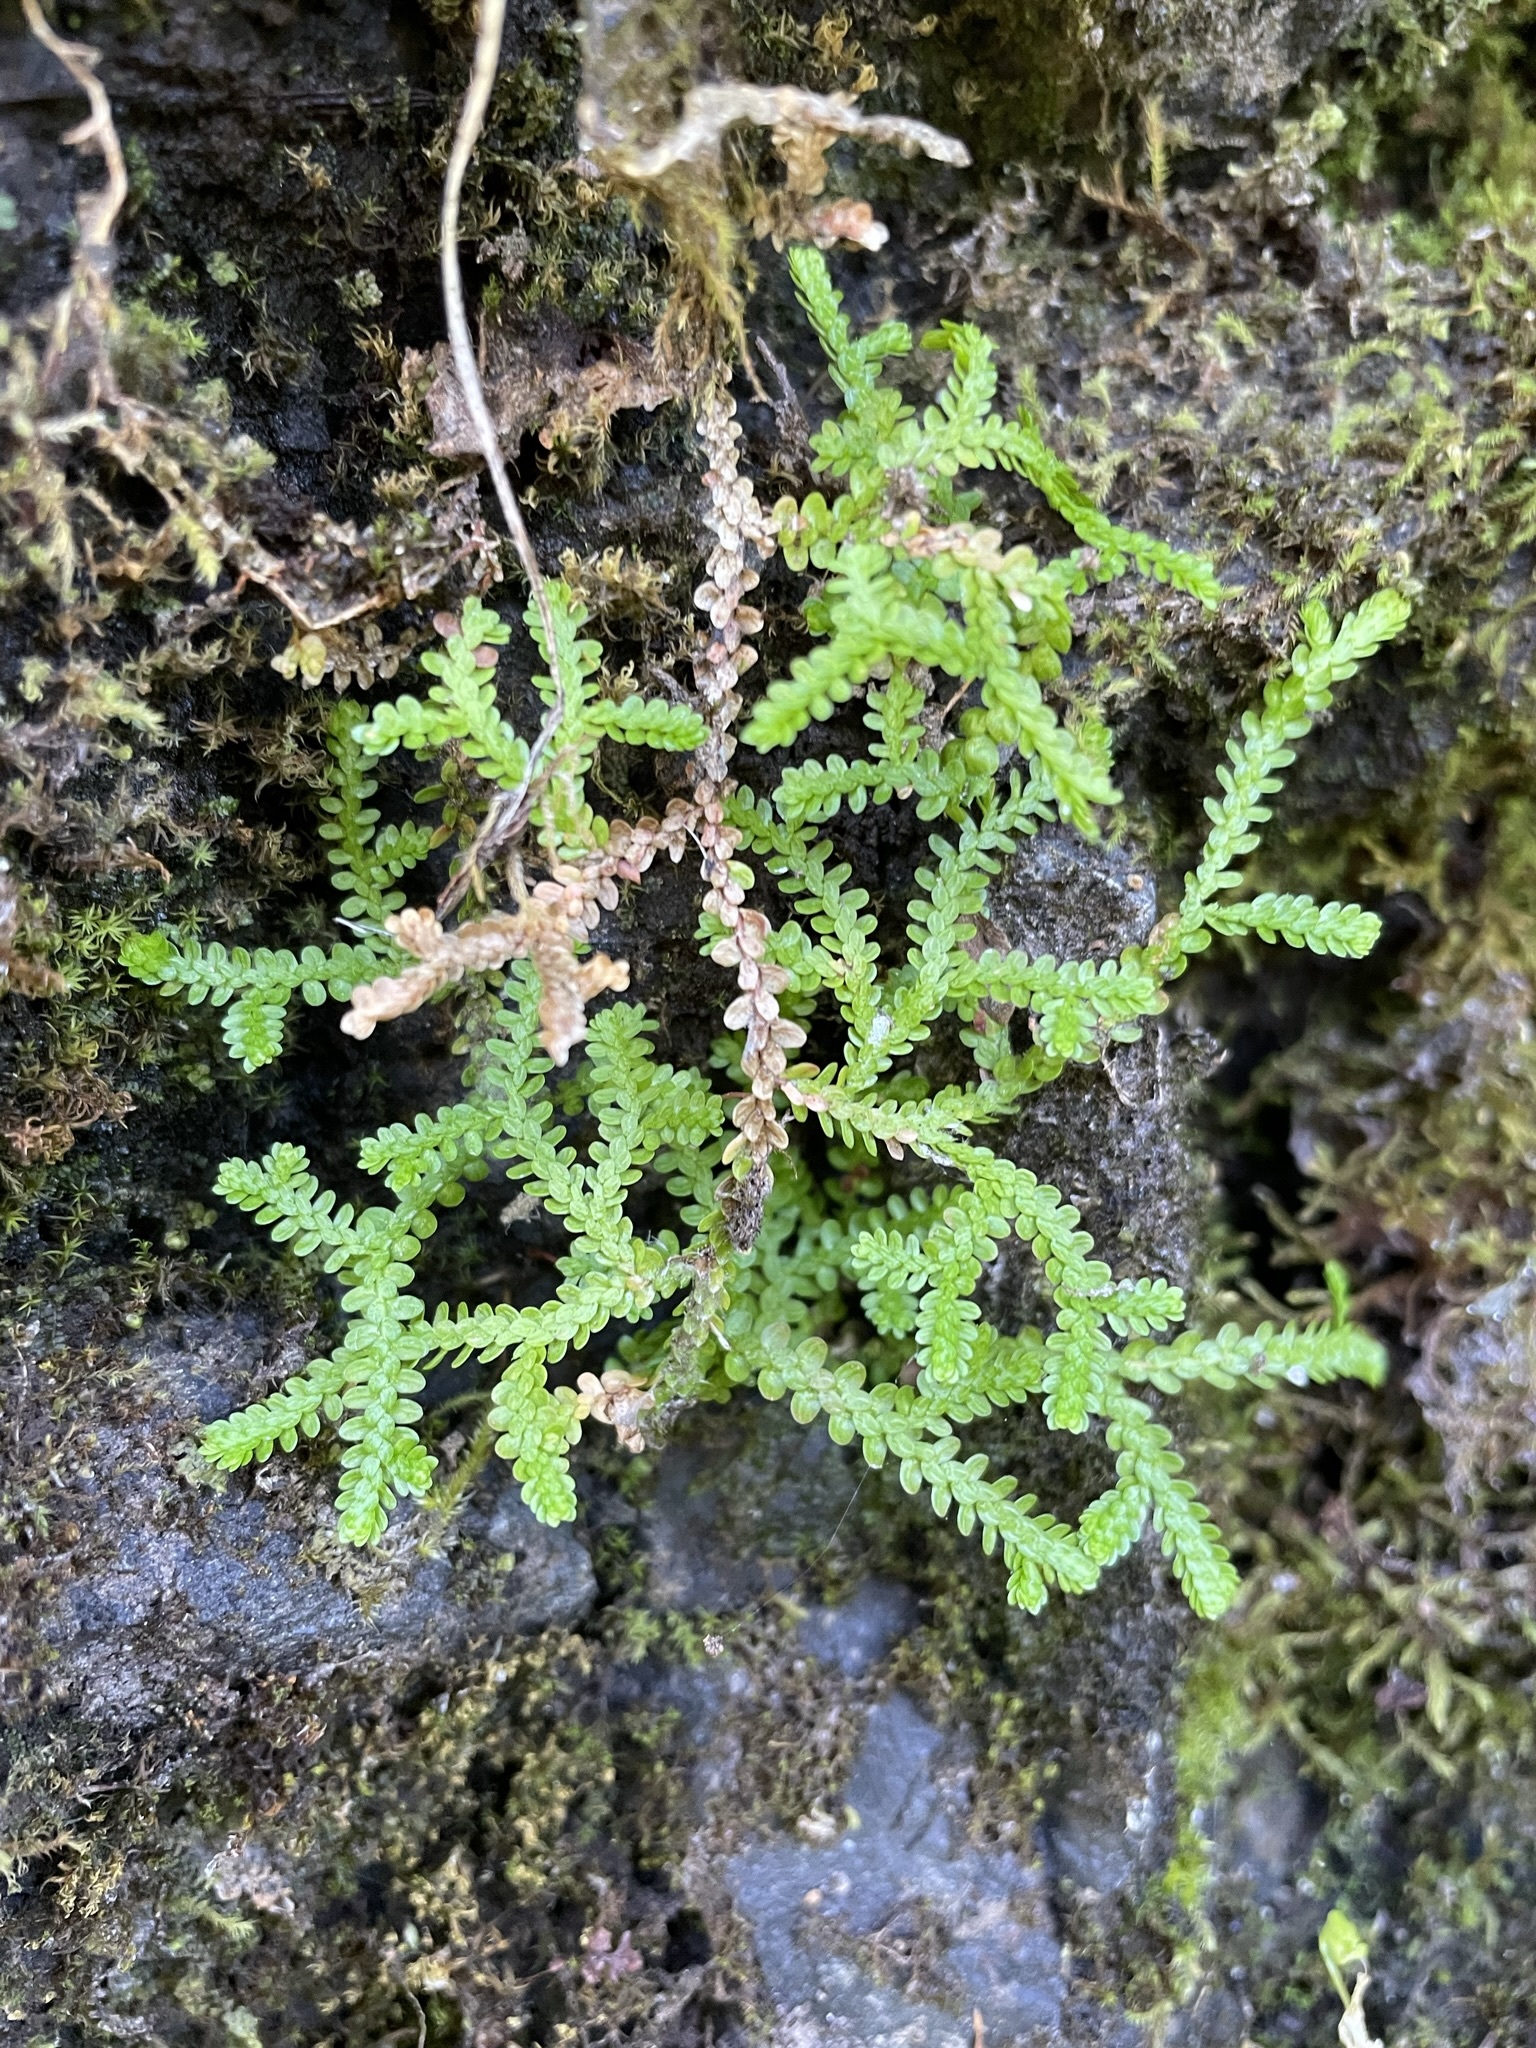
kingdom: Plantae
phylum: Tracheophyta
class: Lycopodiopsida
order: Selaginellales
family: Selaginellaceae
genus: Selaginella
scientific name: Selaginella douglasii
